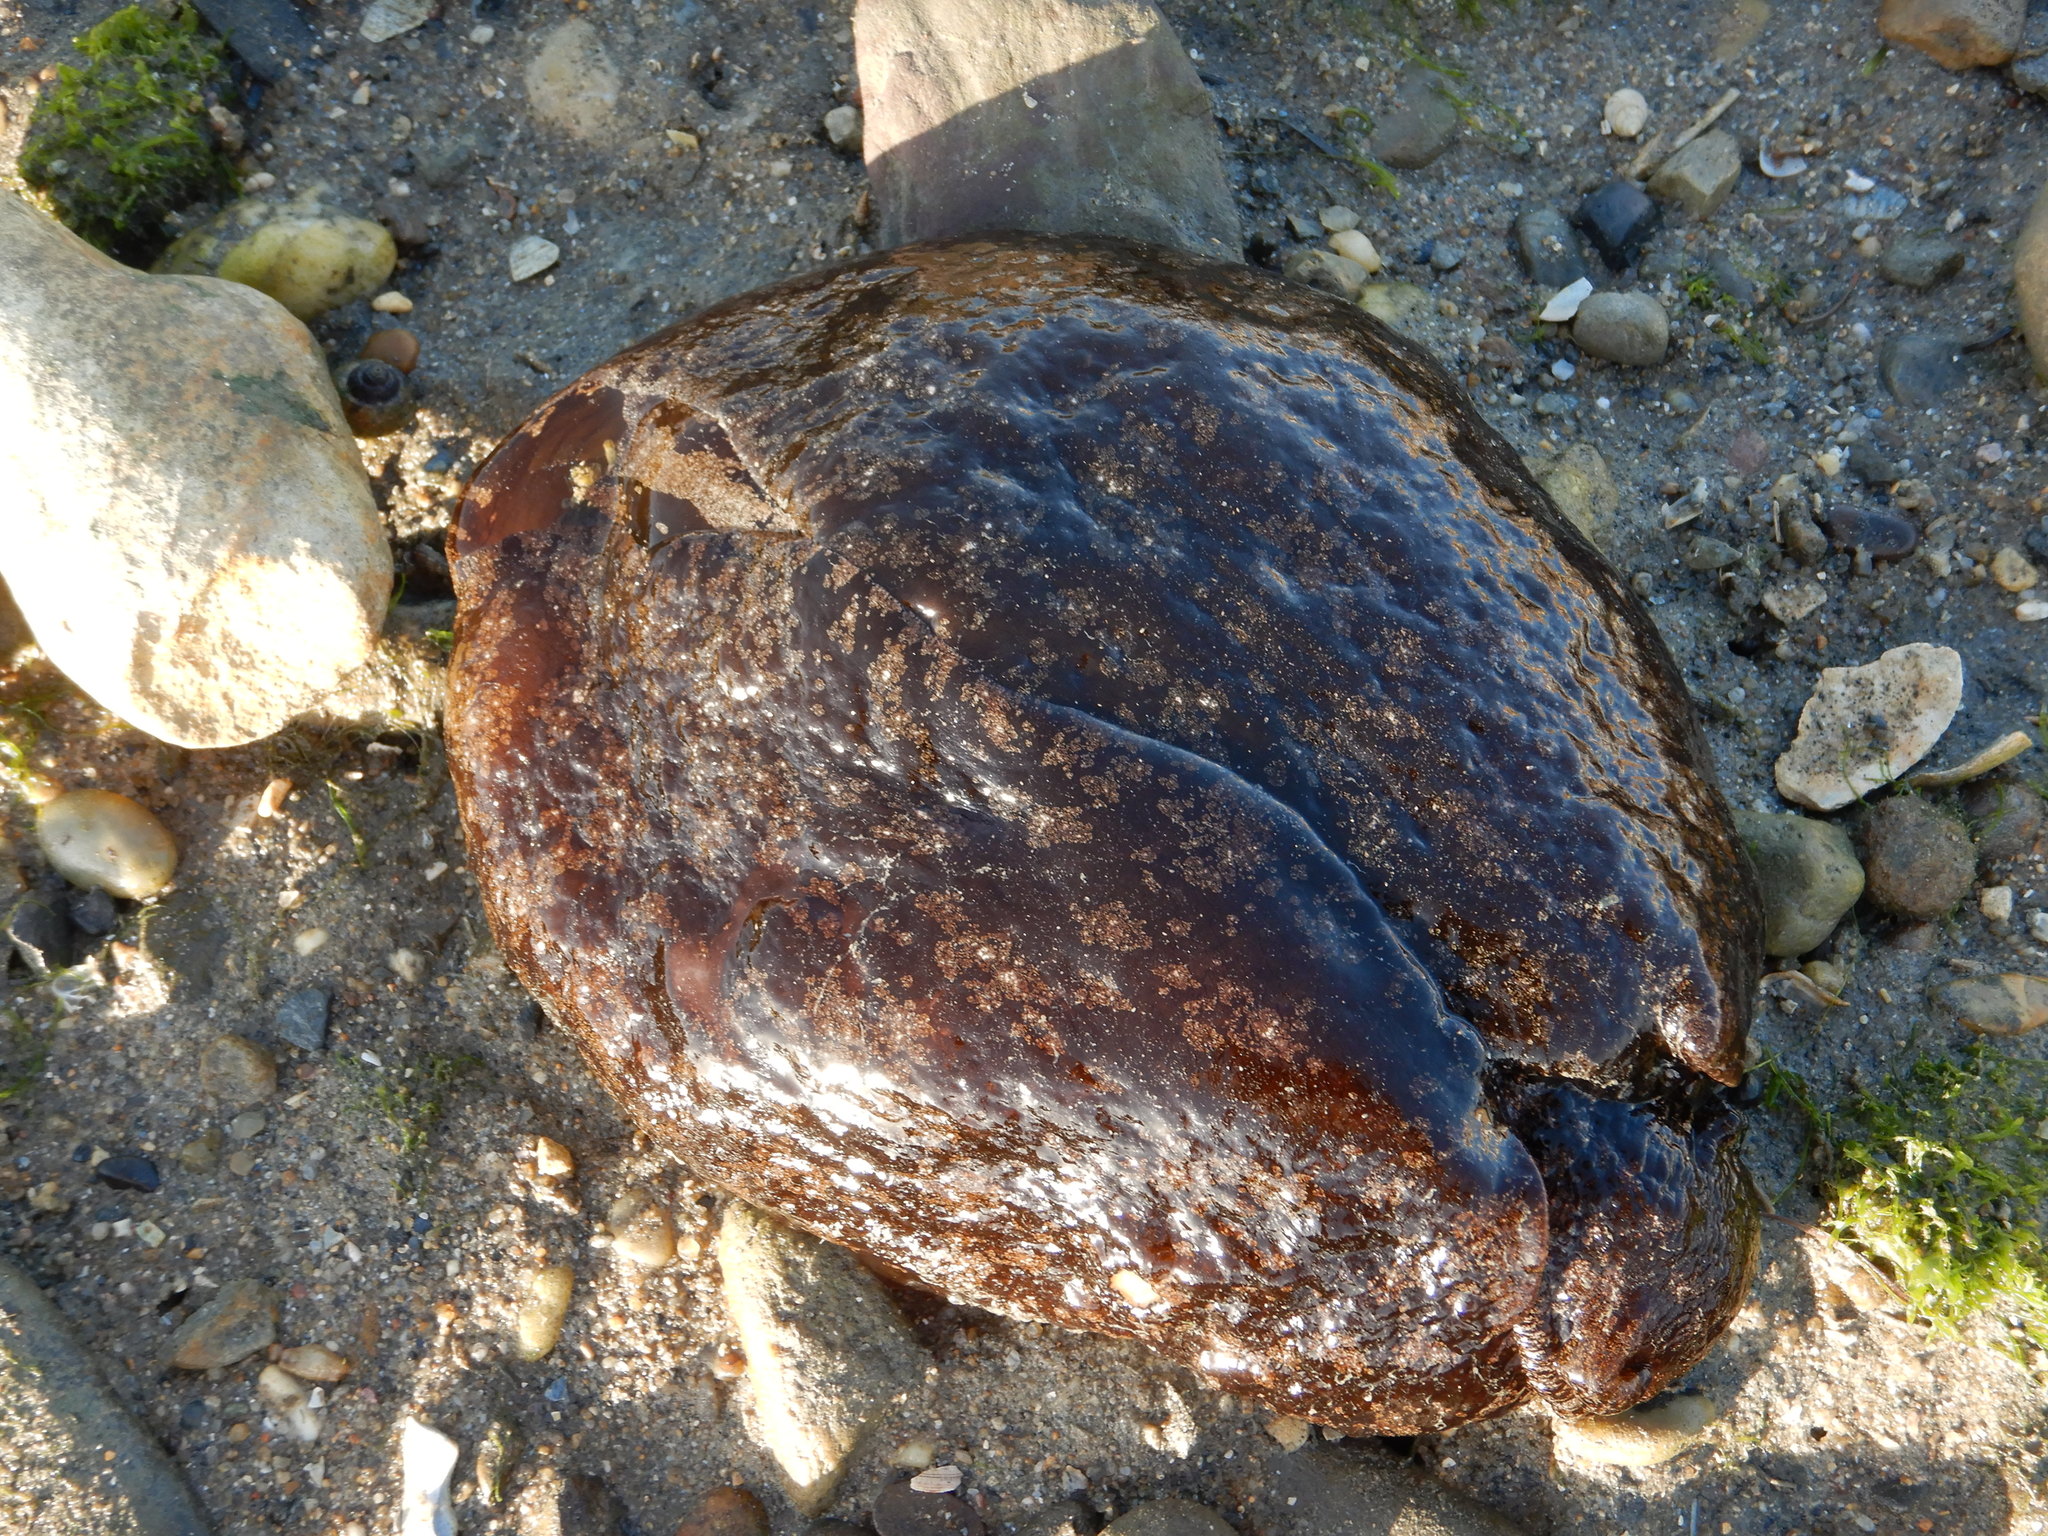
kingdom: Animalia
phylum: Mollusca
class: Gastropoda
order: Aplysiida
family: Aplysiidae
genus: Aplysia
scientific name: Aplysia depilans
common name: Spotted sea hare
